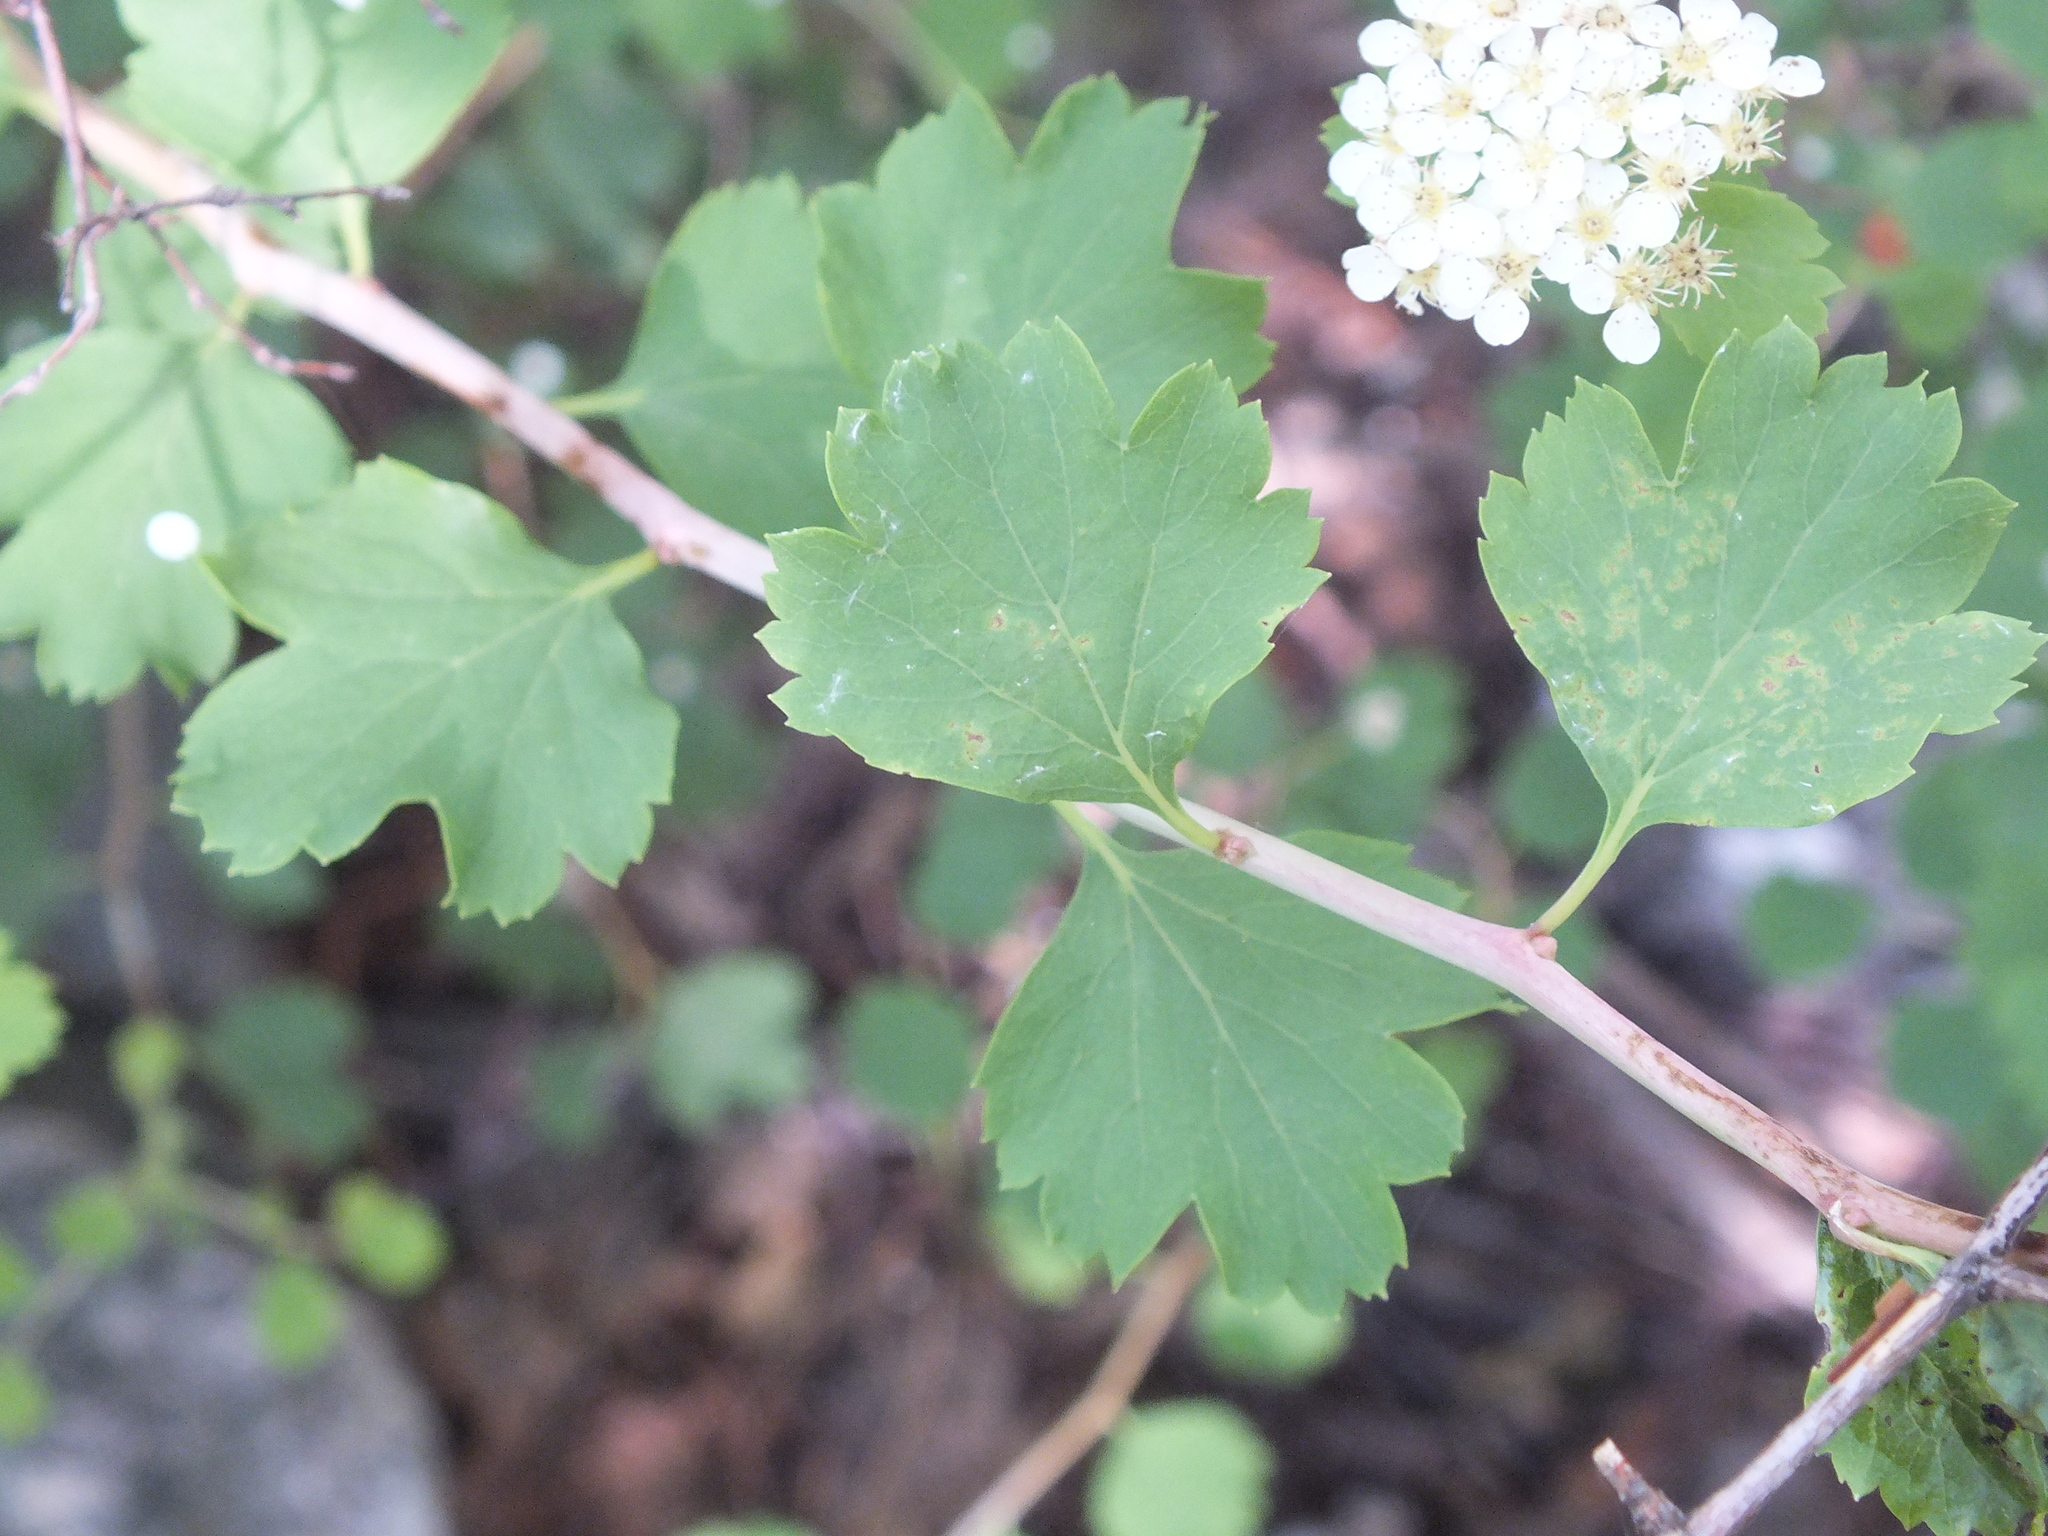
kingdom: Plantae
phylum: Tracheophyta
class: Magnoliopsida
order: Rosales
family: Rosaceae
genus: Spiraea
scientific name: Spiraea trilobata
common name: Asian meadowsweet
